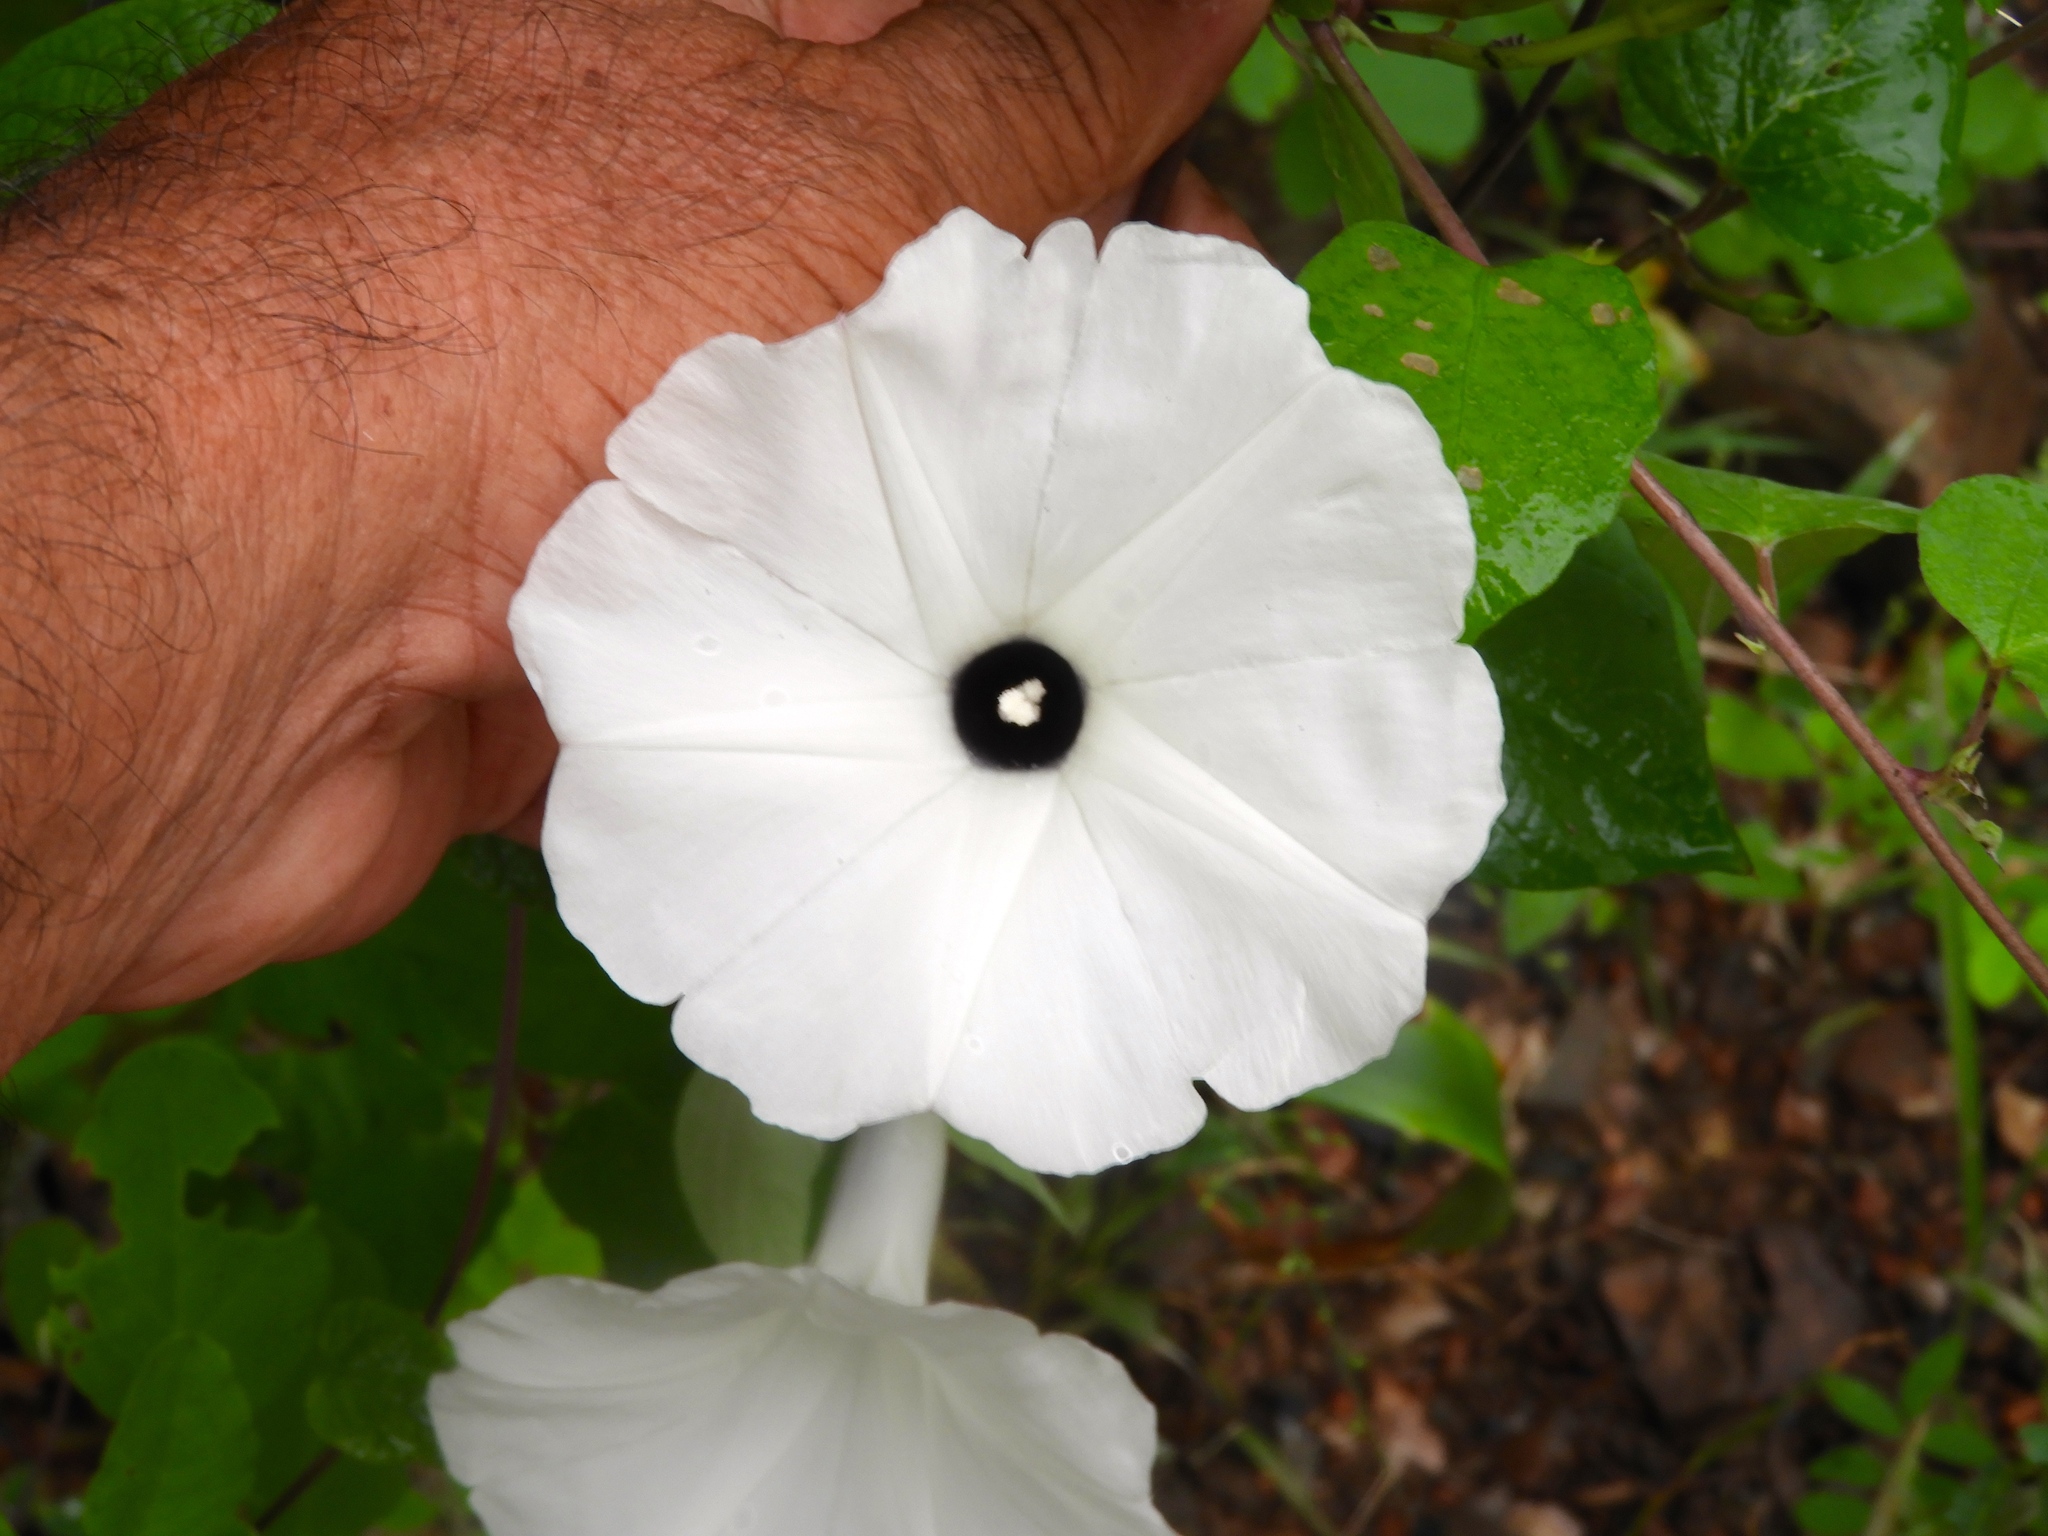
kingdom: Plantae
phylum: Tracheophyta
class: Magnoliopsida
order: Solanales
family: Convolvulaceae
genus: Ipomoea
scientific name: Ipomoea scopulorum
